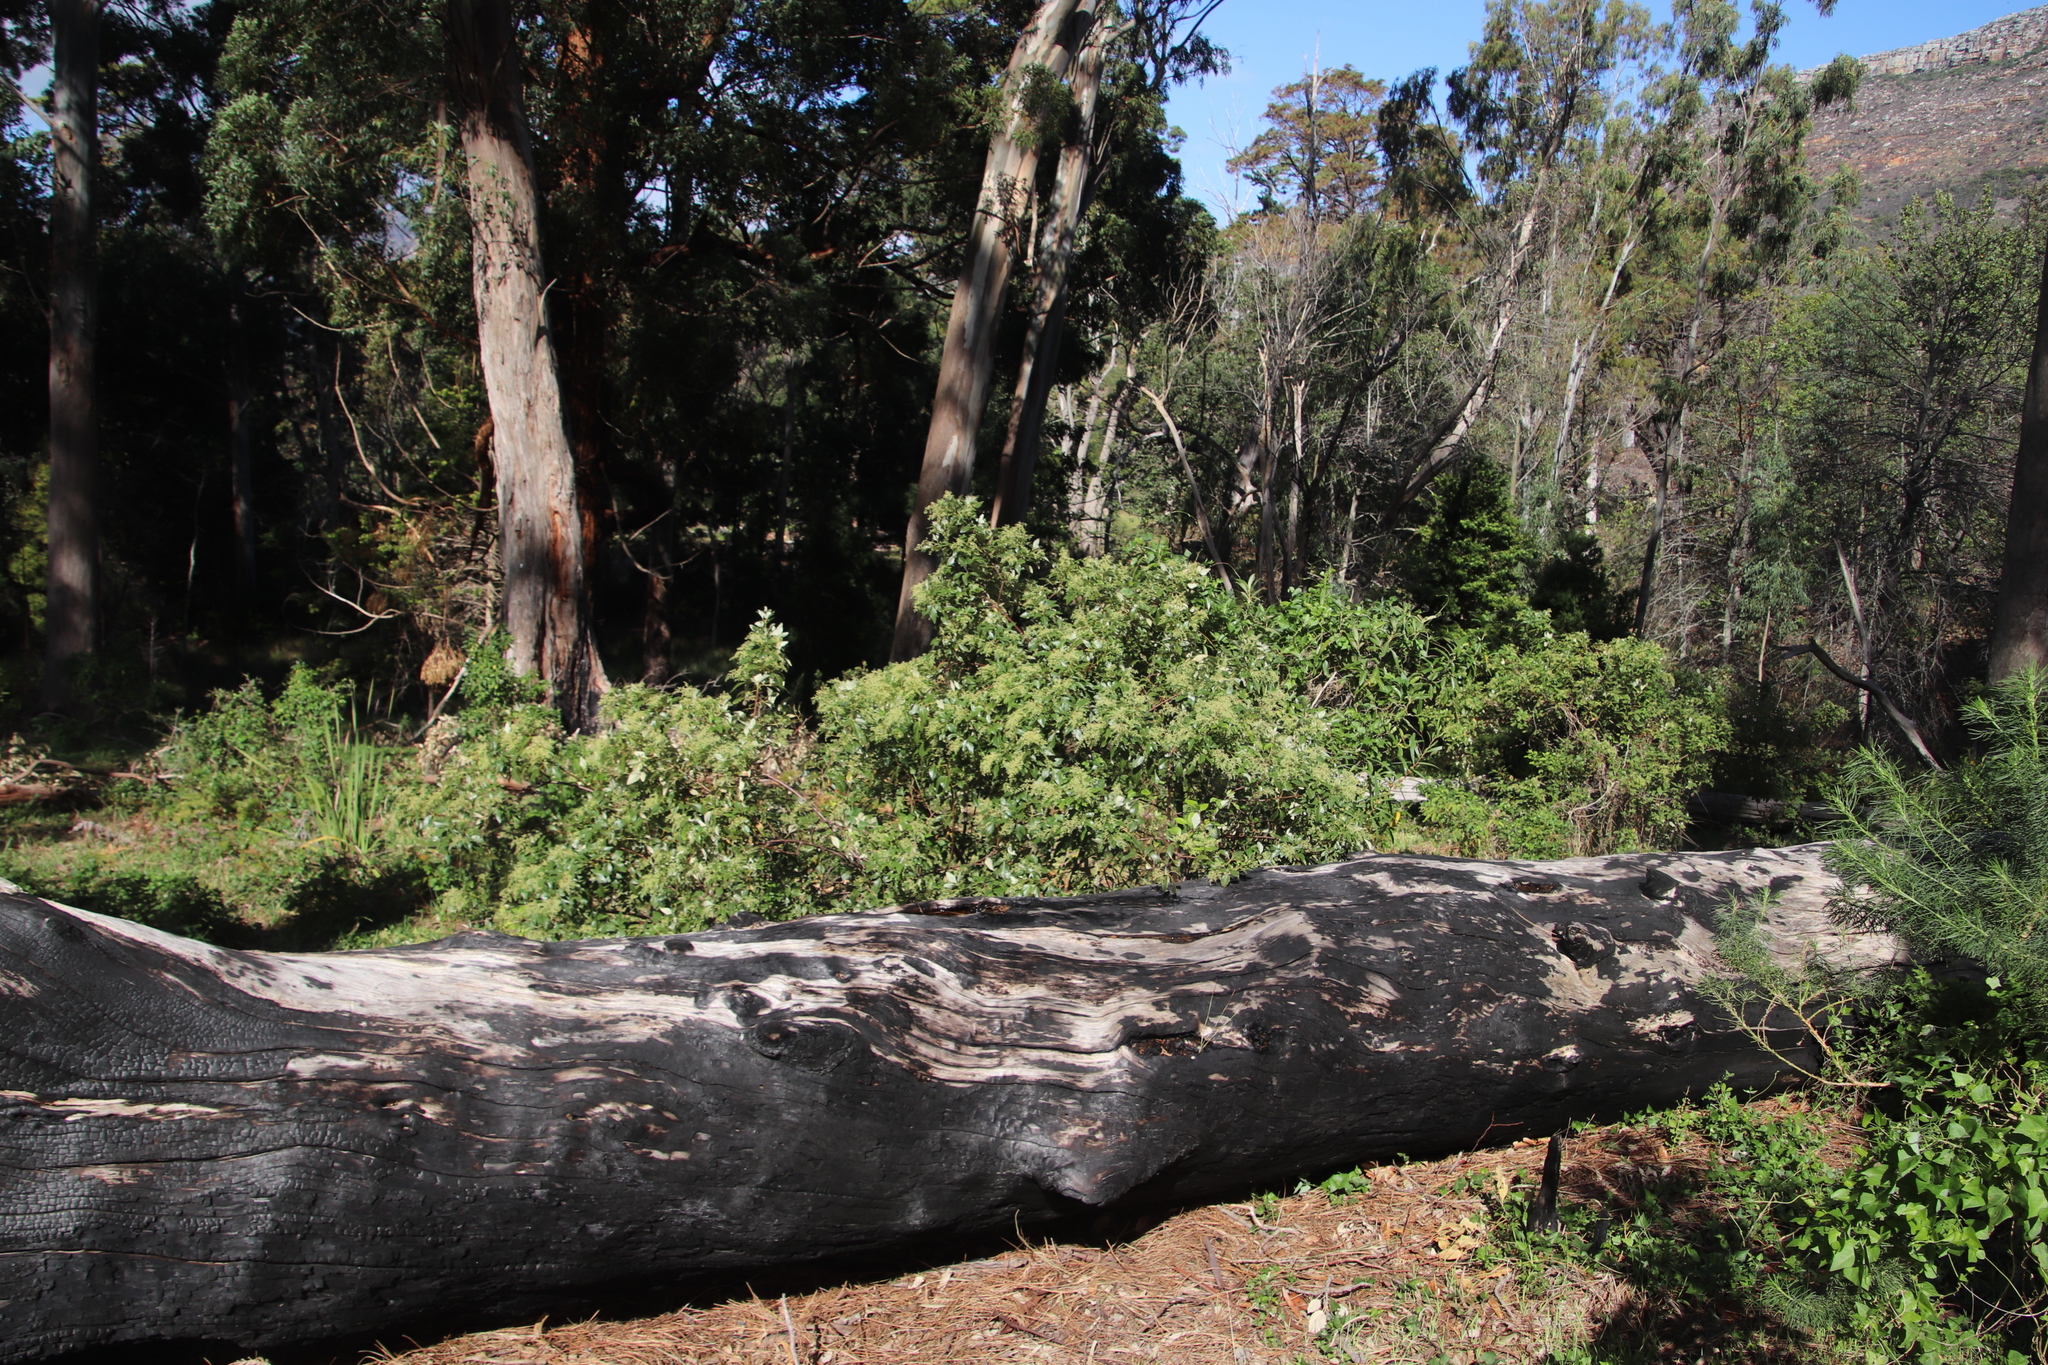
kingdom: Plantae
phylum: Tracheophyta
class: Magnoliopsida
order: Sapindales
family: Anacardiaceae
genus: Searsia
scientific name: Searsia tomentosa
